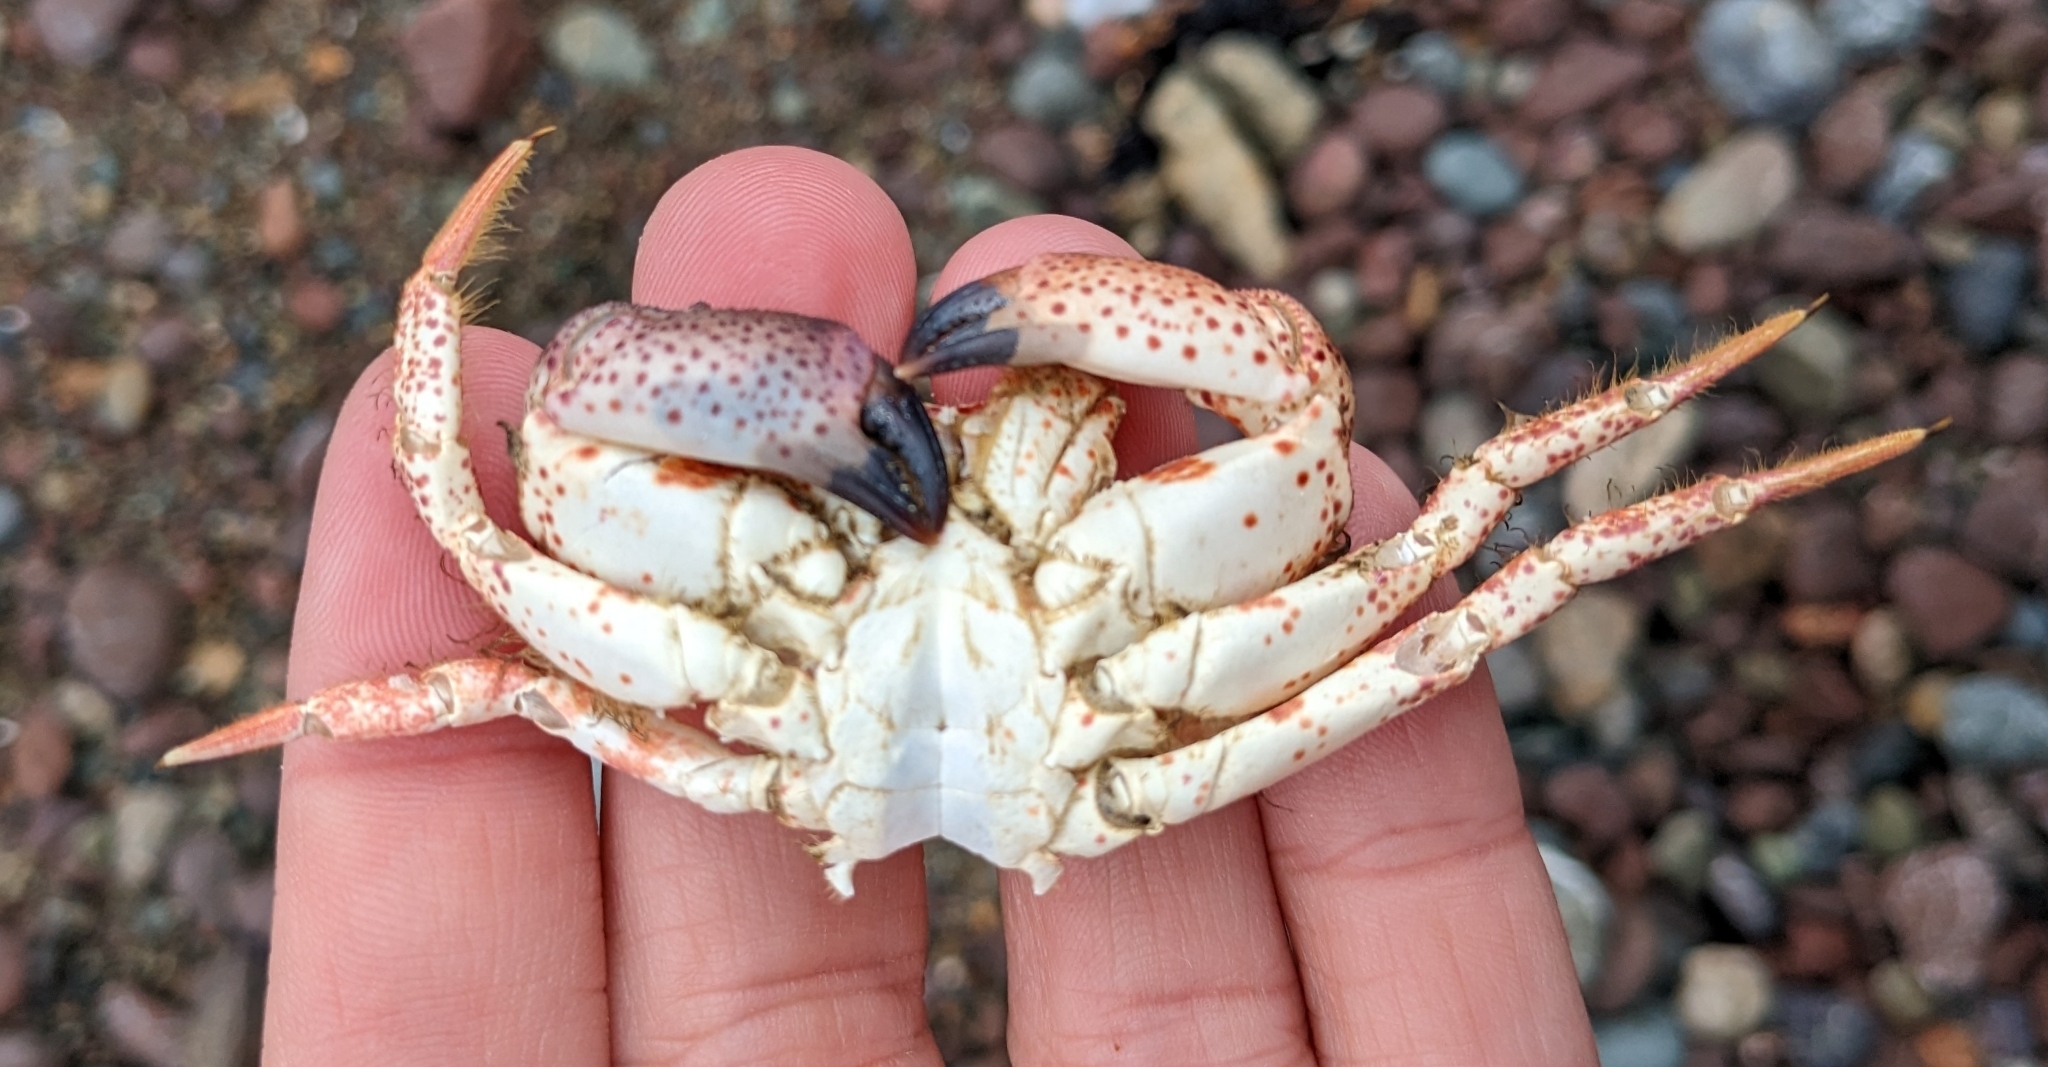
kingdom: Animalia
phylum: Arthropoda
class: Malacostraca
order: Decapoda
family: Cancridae
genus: Romaleon
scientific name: Romaleon antennarium
